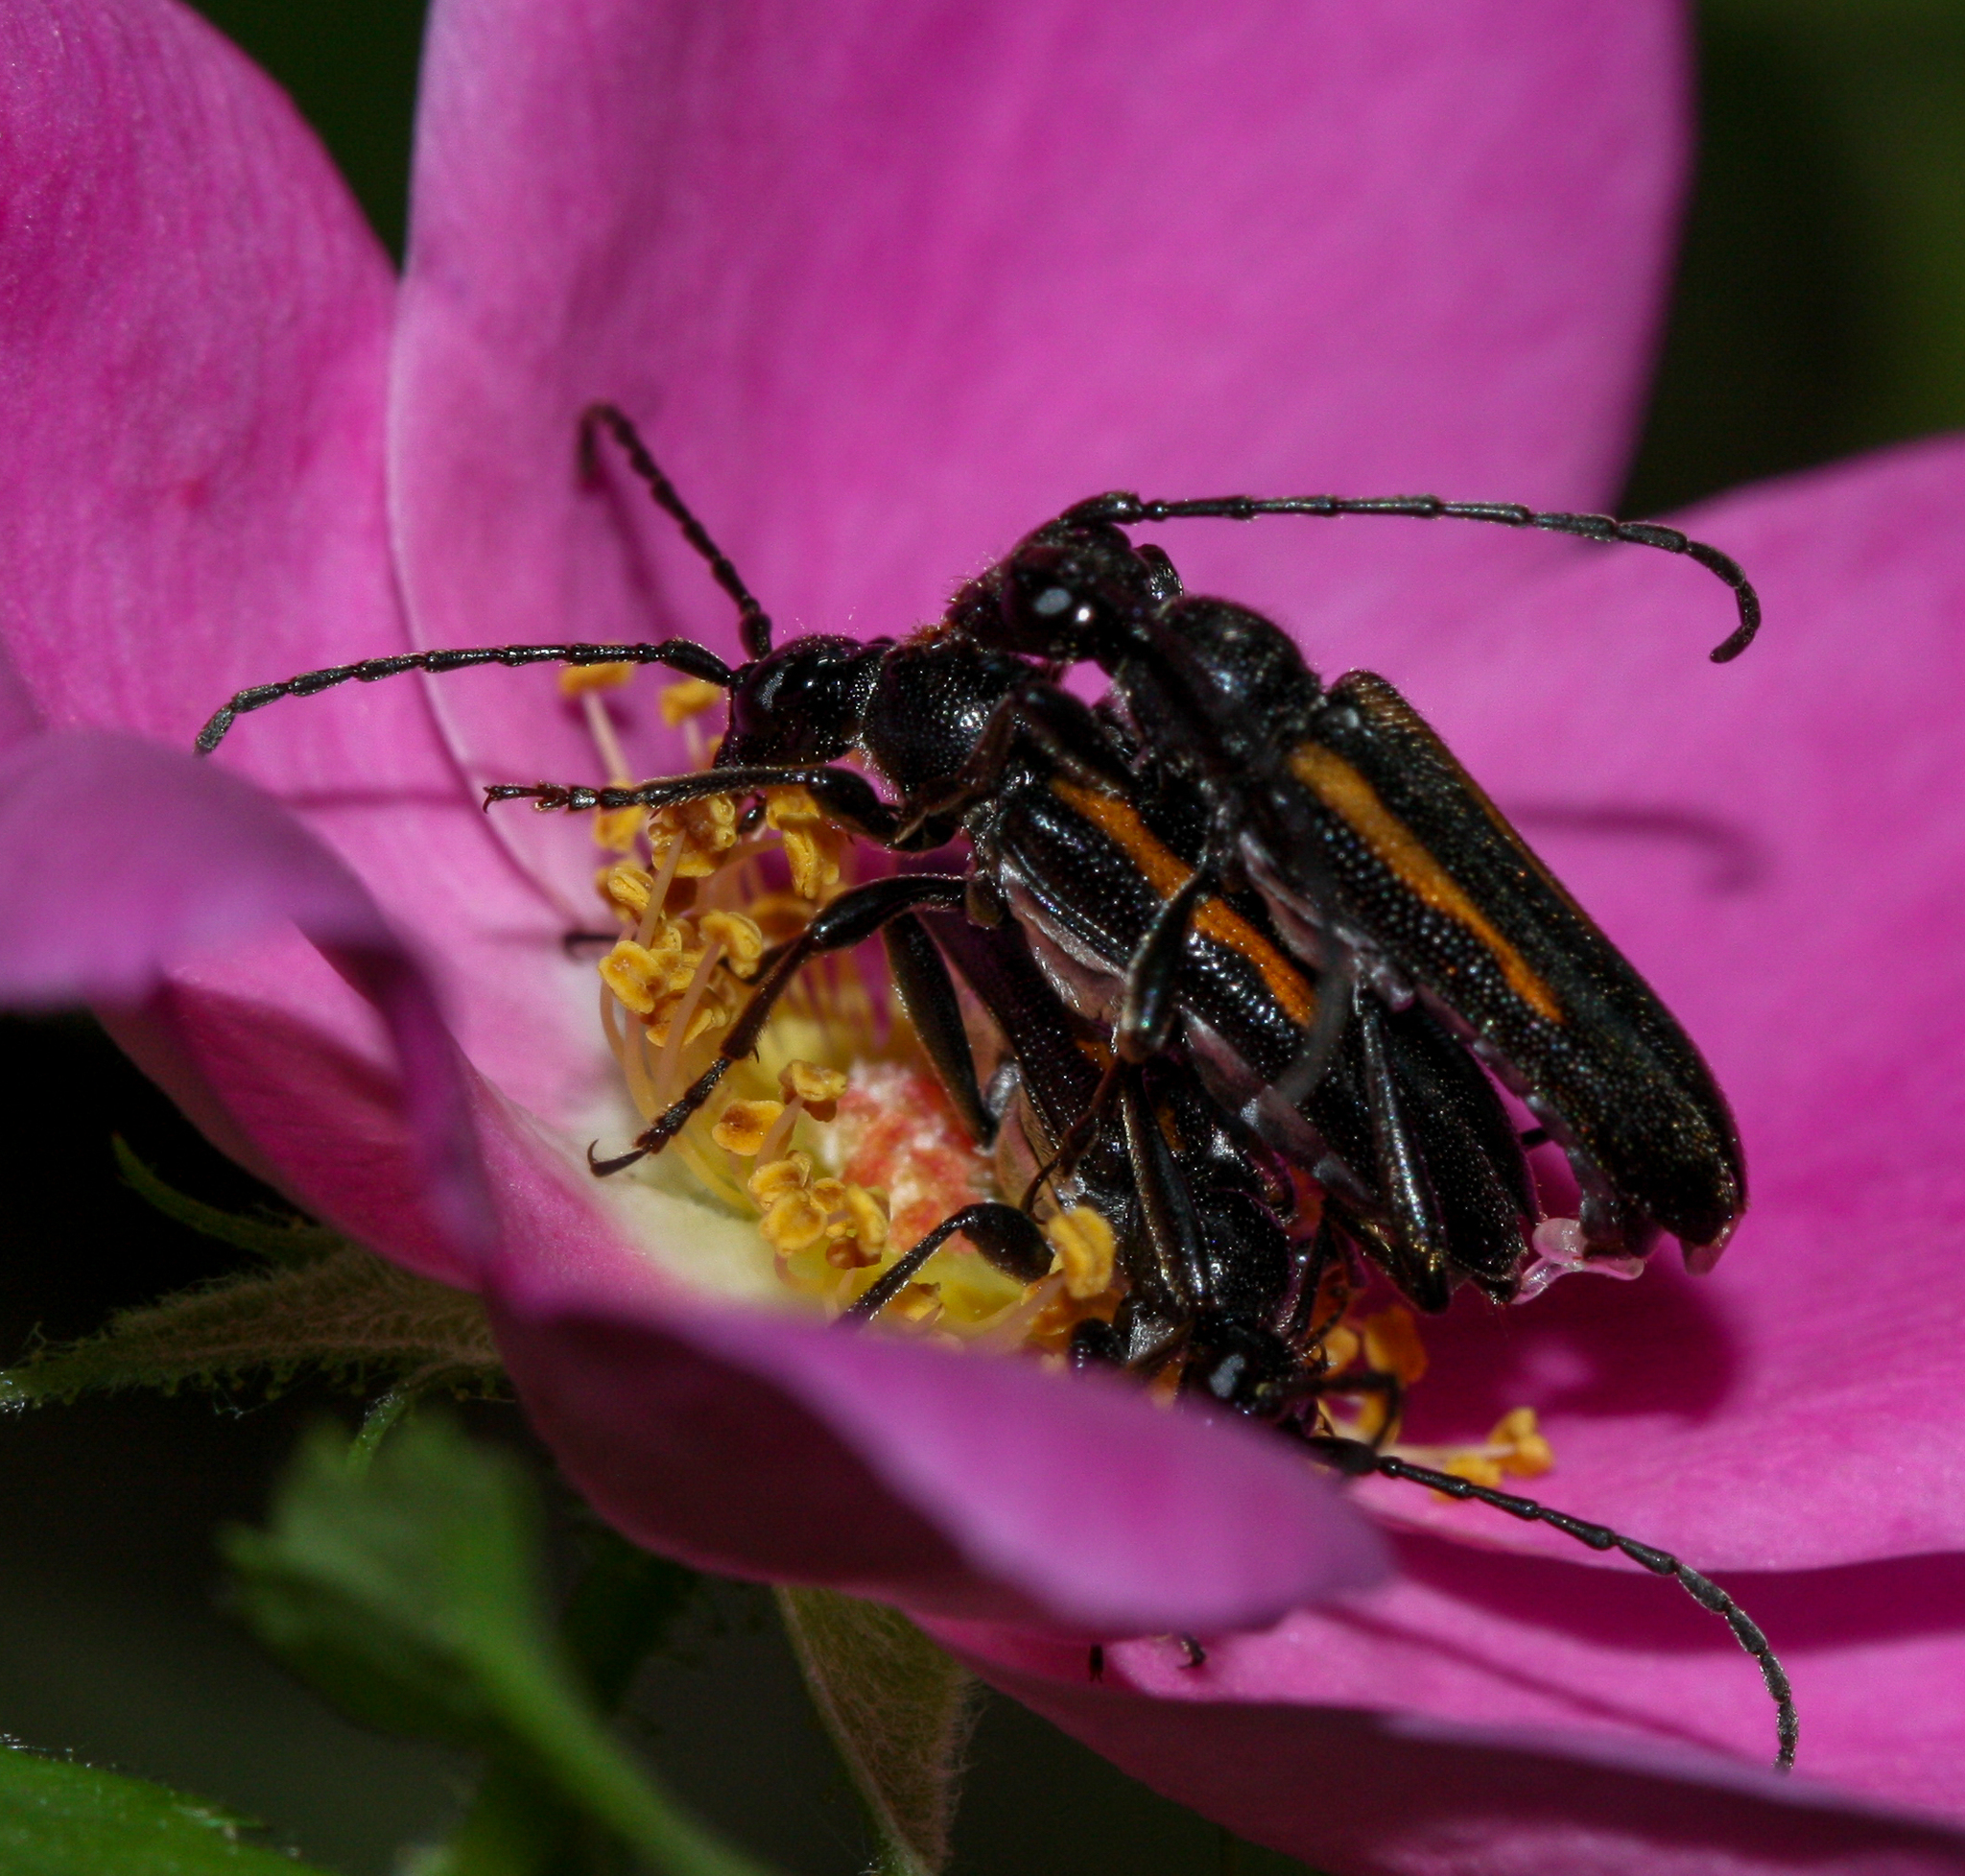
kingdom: Animalia
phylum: Arthropoda
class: Insecta
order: Coleoptera
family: Cerambycidae
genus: Strangalepta
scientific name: Strangalepta abbreviata
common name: Strangalepta flower longhorn beetle
